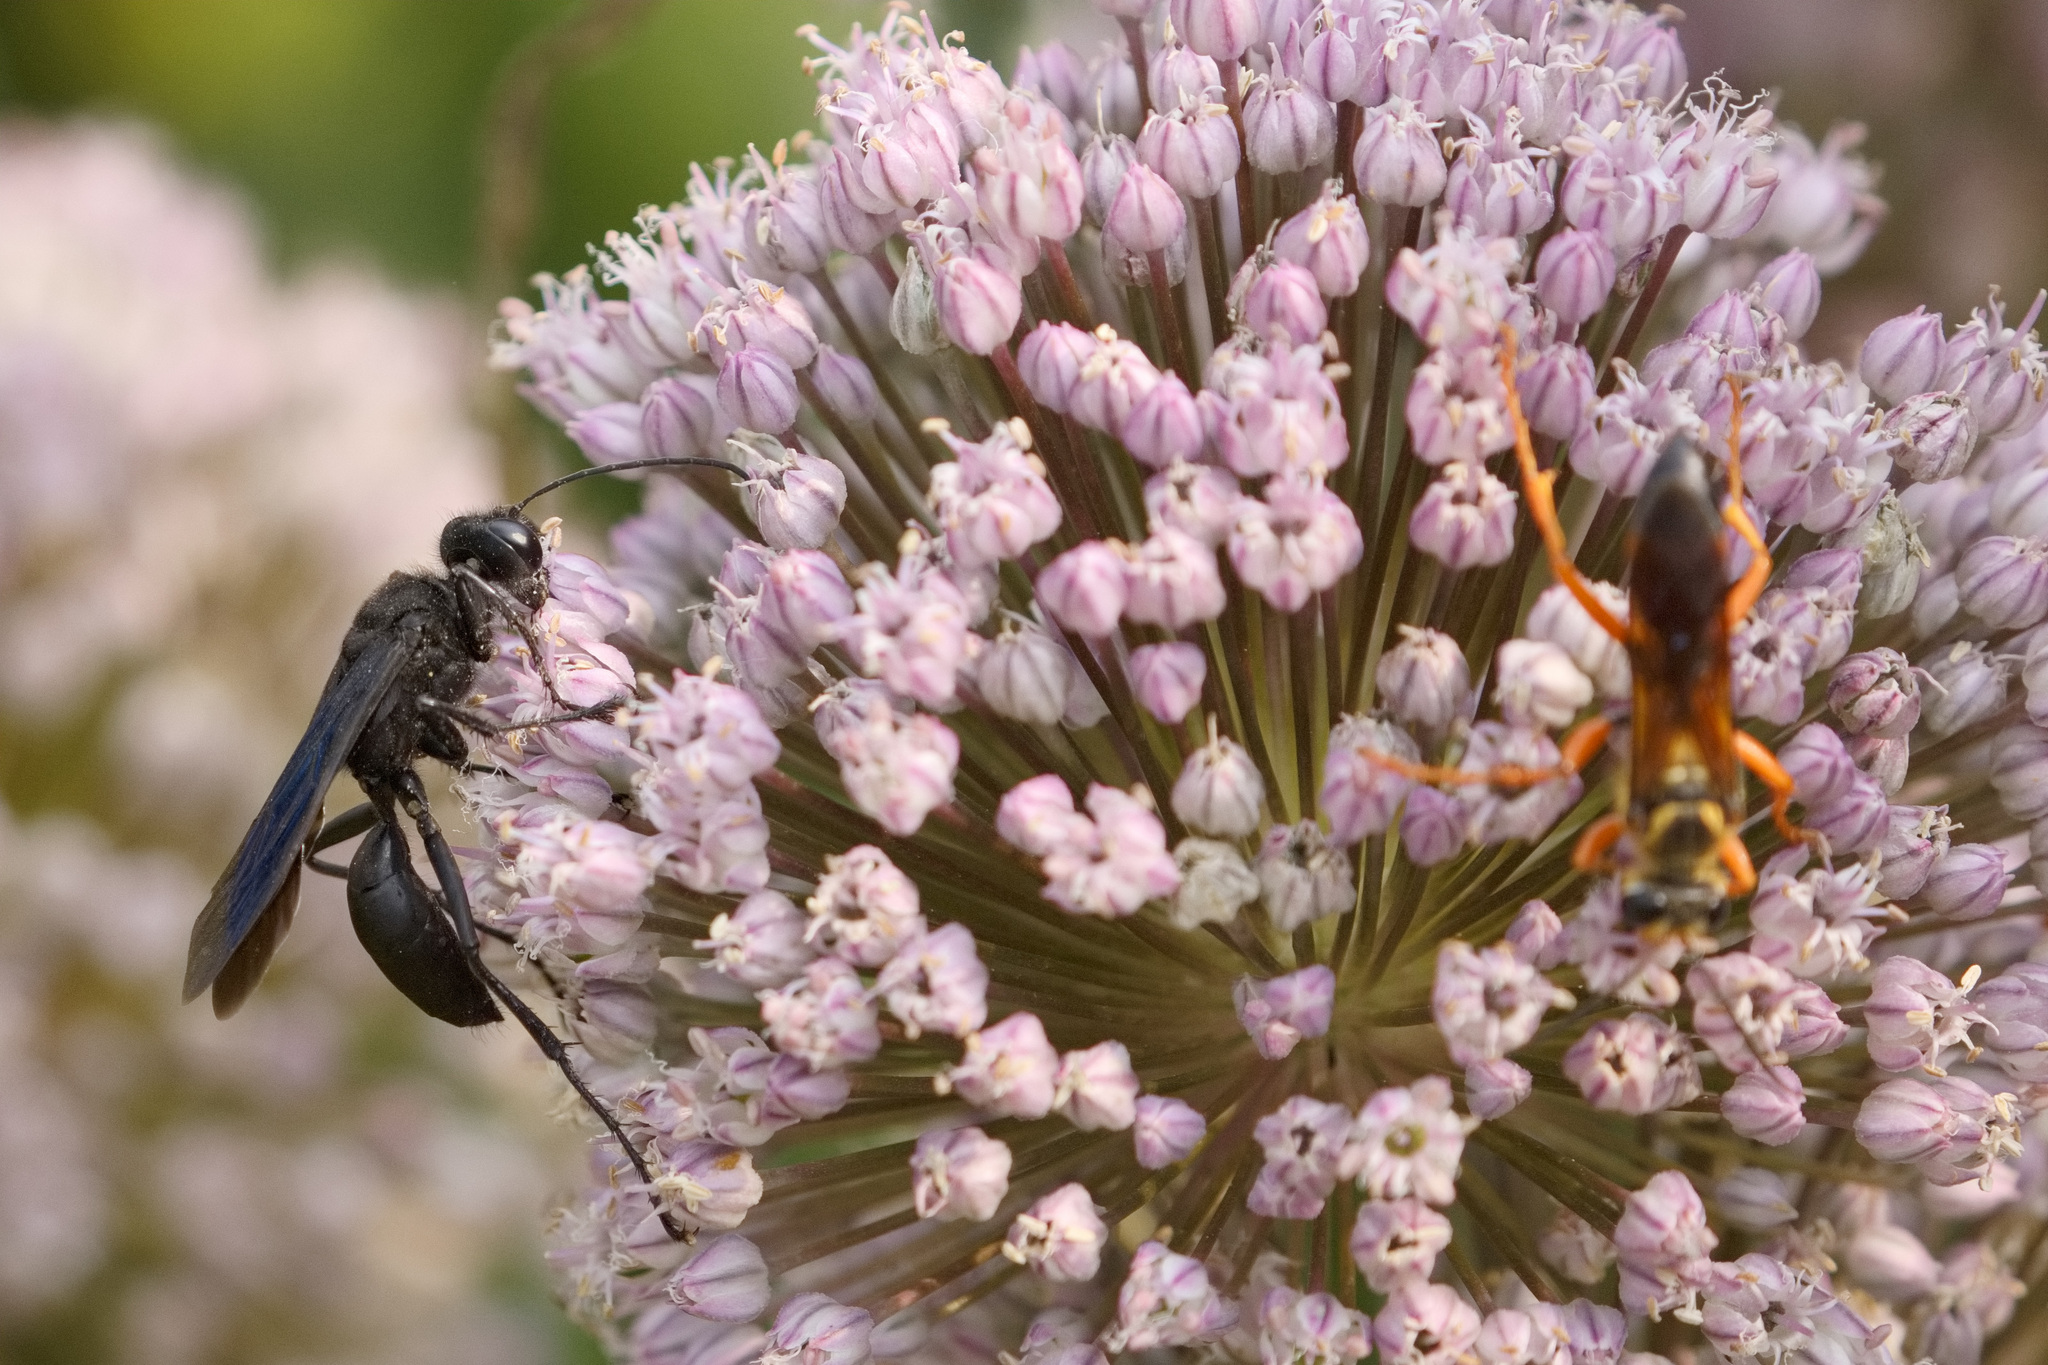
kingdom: Animalia
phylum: Arthropoda
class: Insecta
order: Hymenoptera
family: Sphecidae
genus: Sphex
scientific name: Sphex pensylvanicus
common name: Great black digger wasp
